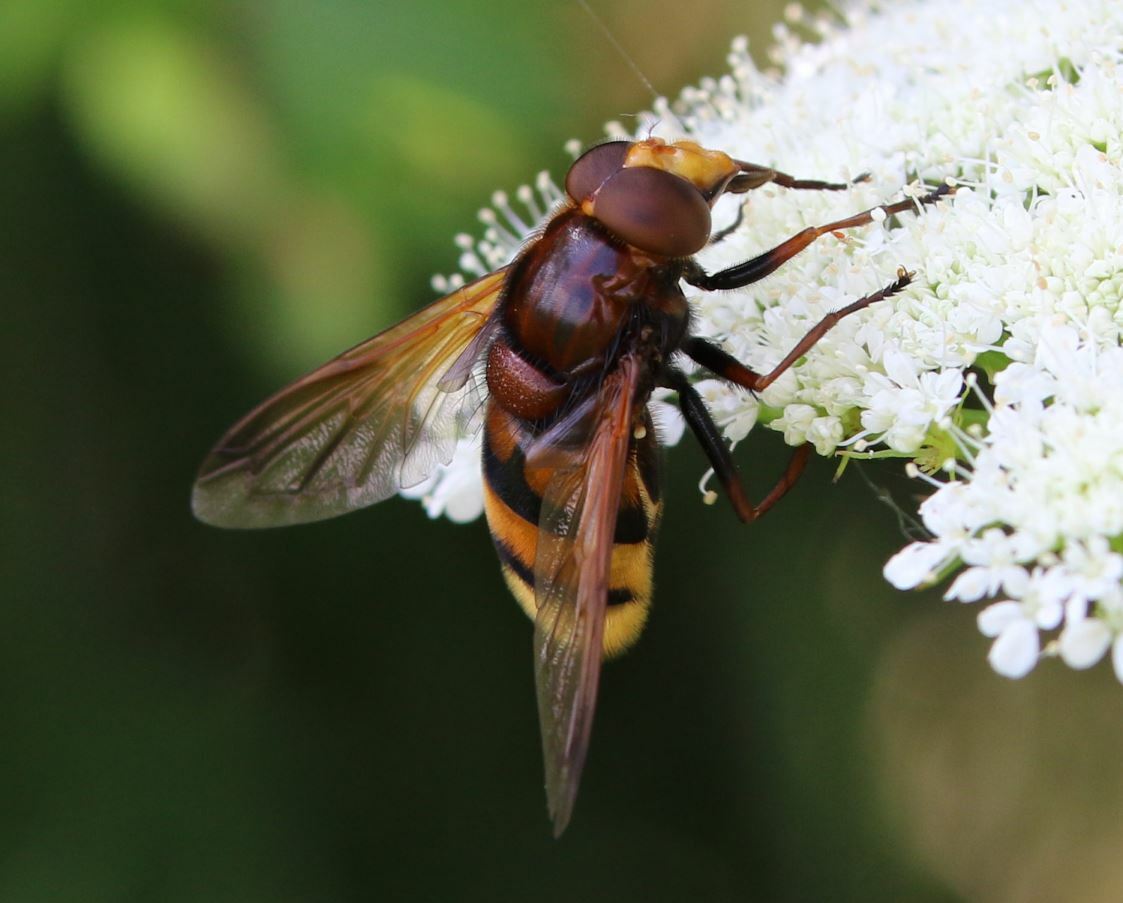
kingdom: Animalia
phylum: Arthropoda
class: Insecta
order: Diptera
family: Syrphidae
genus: Volucella
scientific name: Volucella zonaria
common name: Hornet hoverfly
